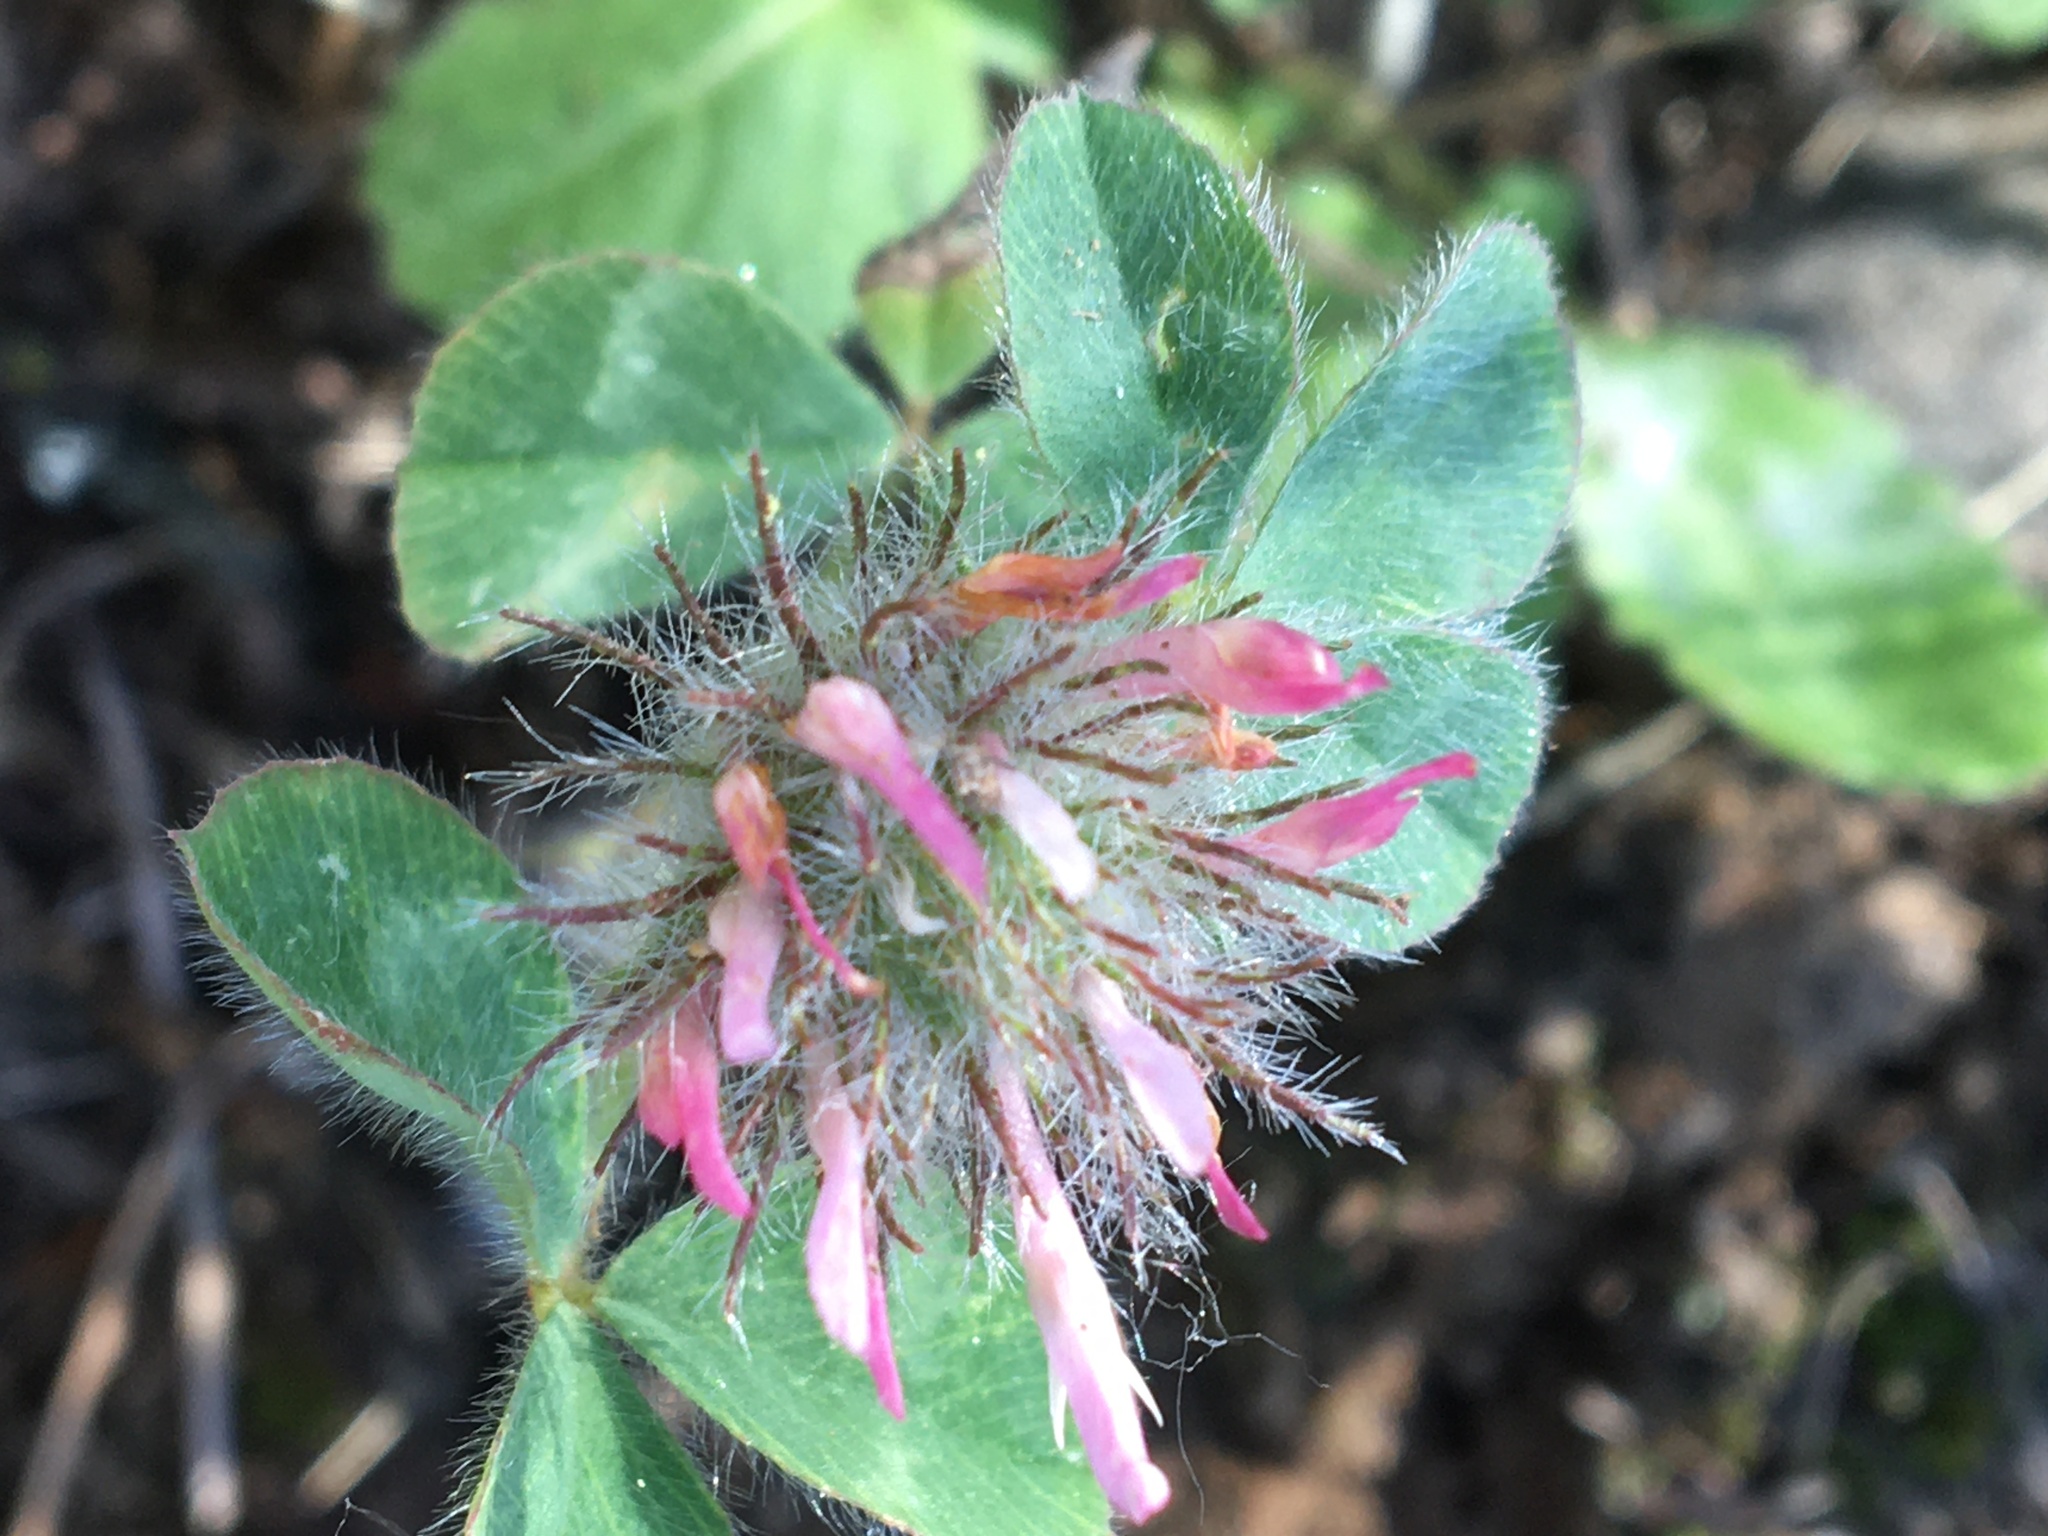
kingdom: Plantae
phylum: Tracheophyta
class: Magnoliopsida
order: Fabales
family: Fabaceae
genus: Trifolium
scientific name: Trifolium hirtum
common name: Rose clover
